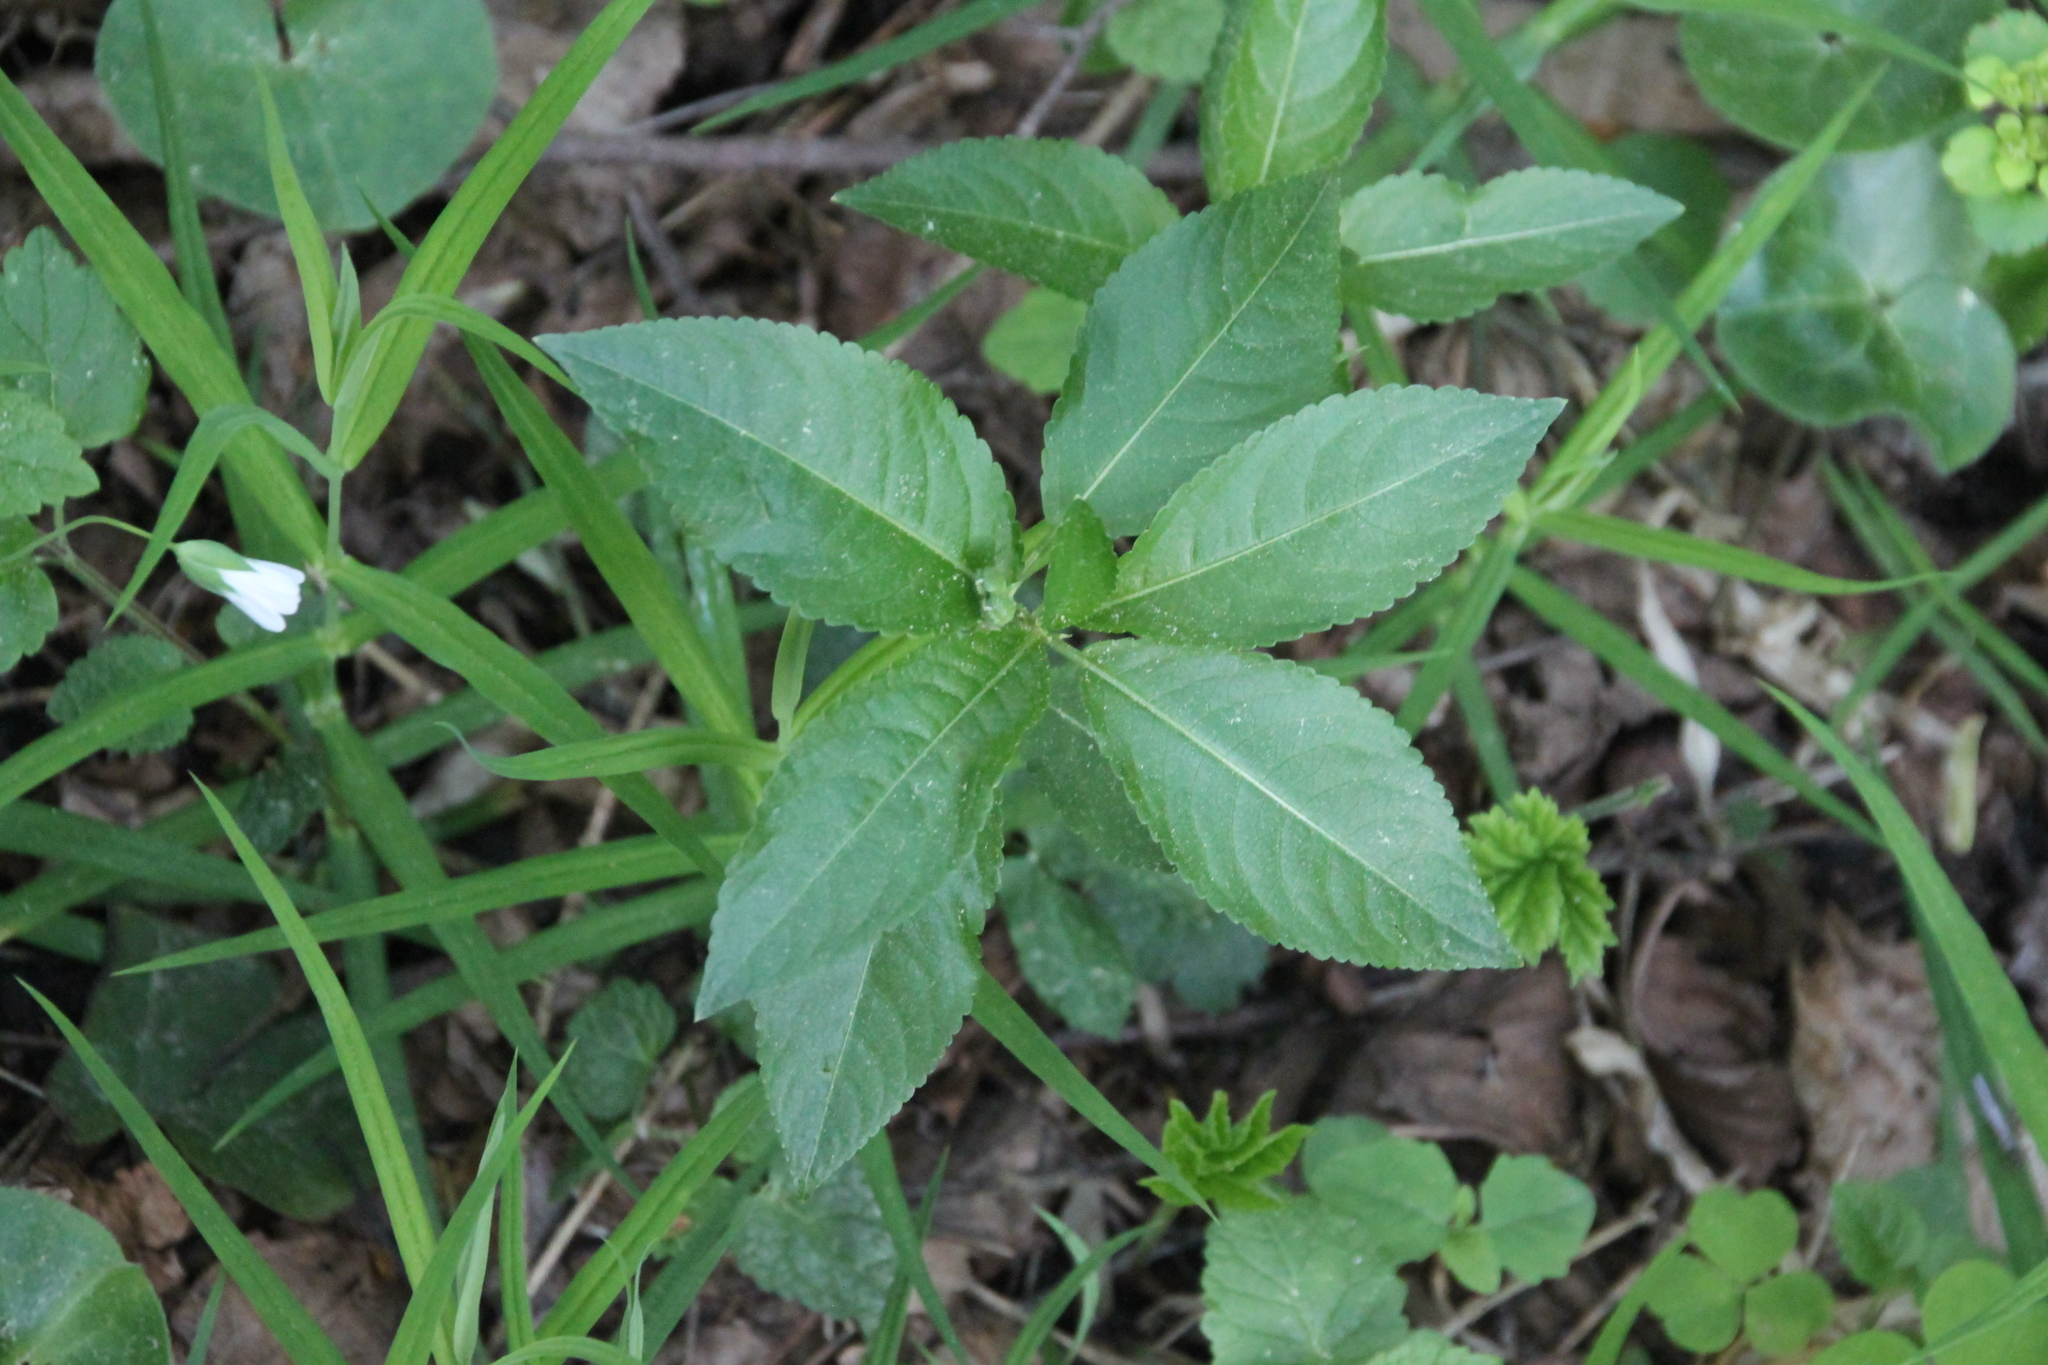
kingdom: Plantae
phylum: Tracheophyta
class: Magnoliopsida
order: Malpighiales
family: Euphorbiaceae
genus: Mercurialis
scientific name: Mercurialis perennis
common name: Dog mercury
